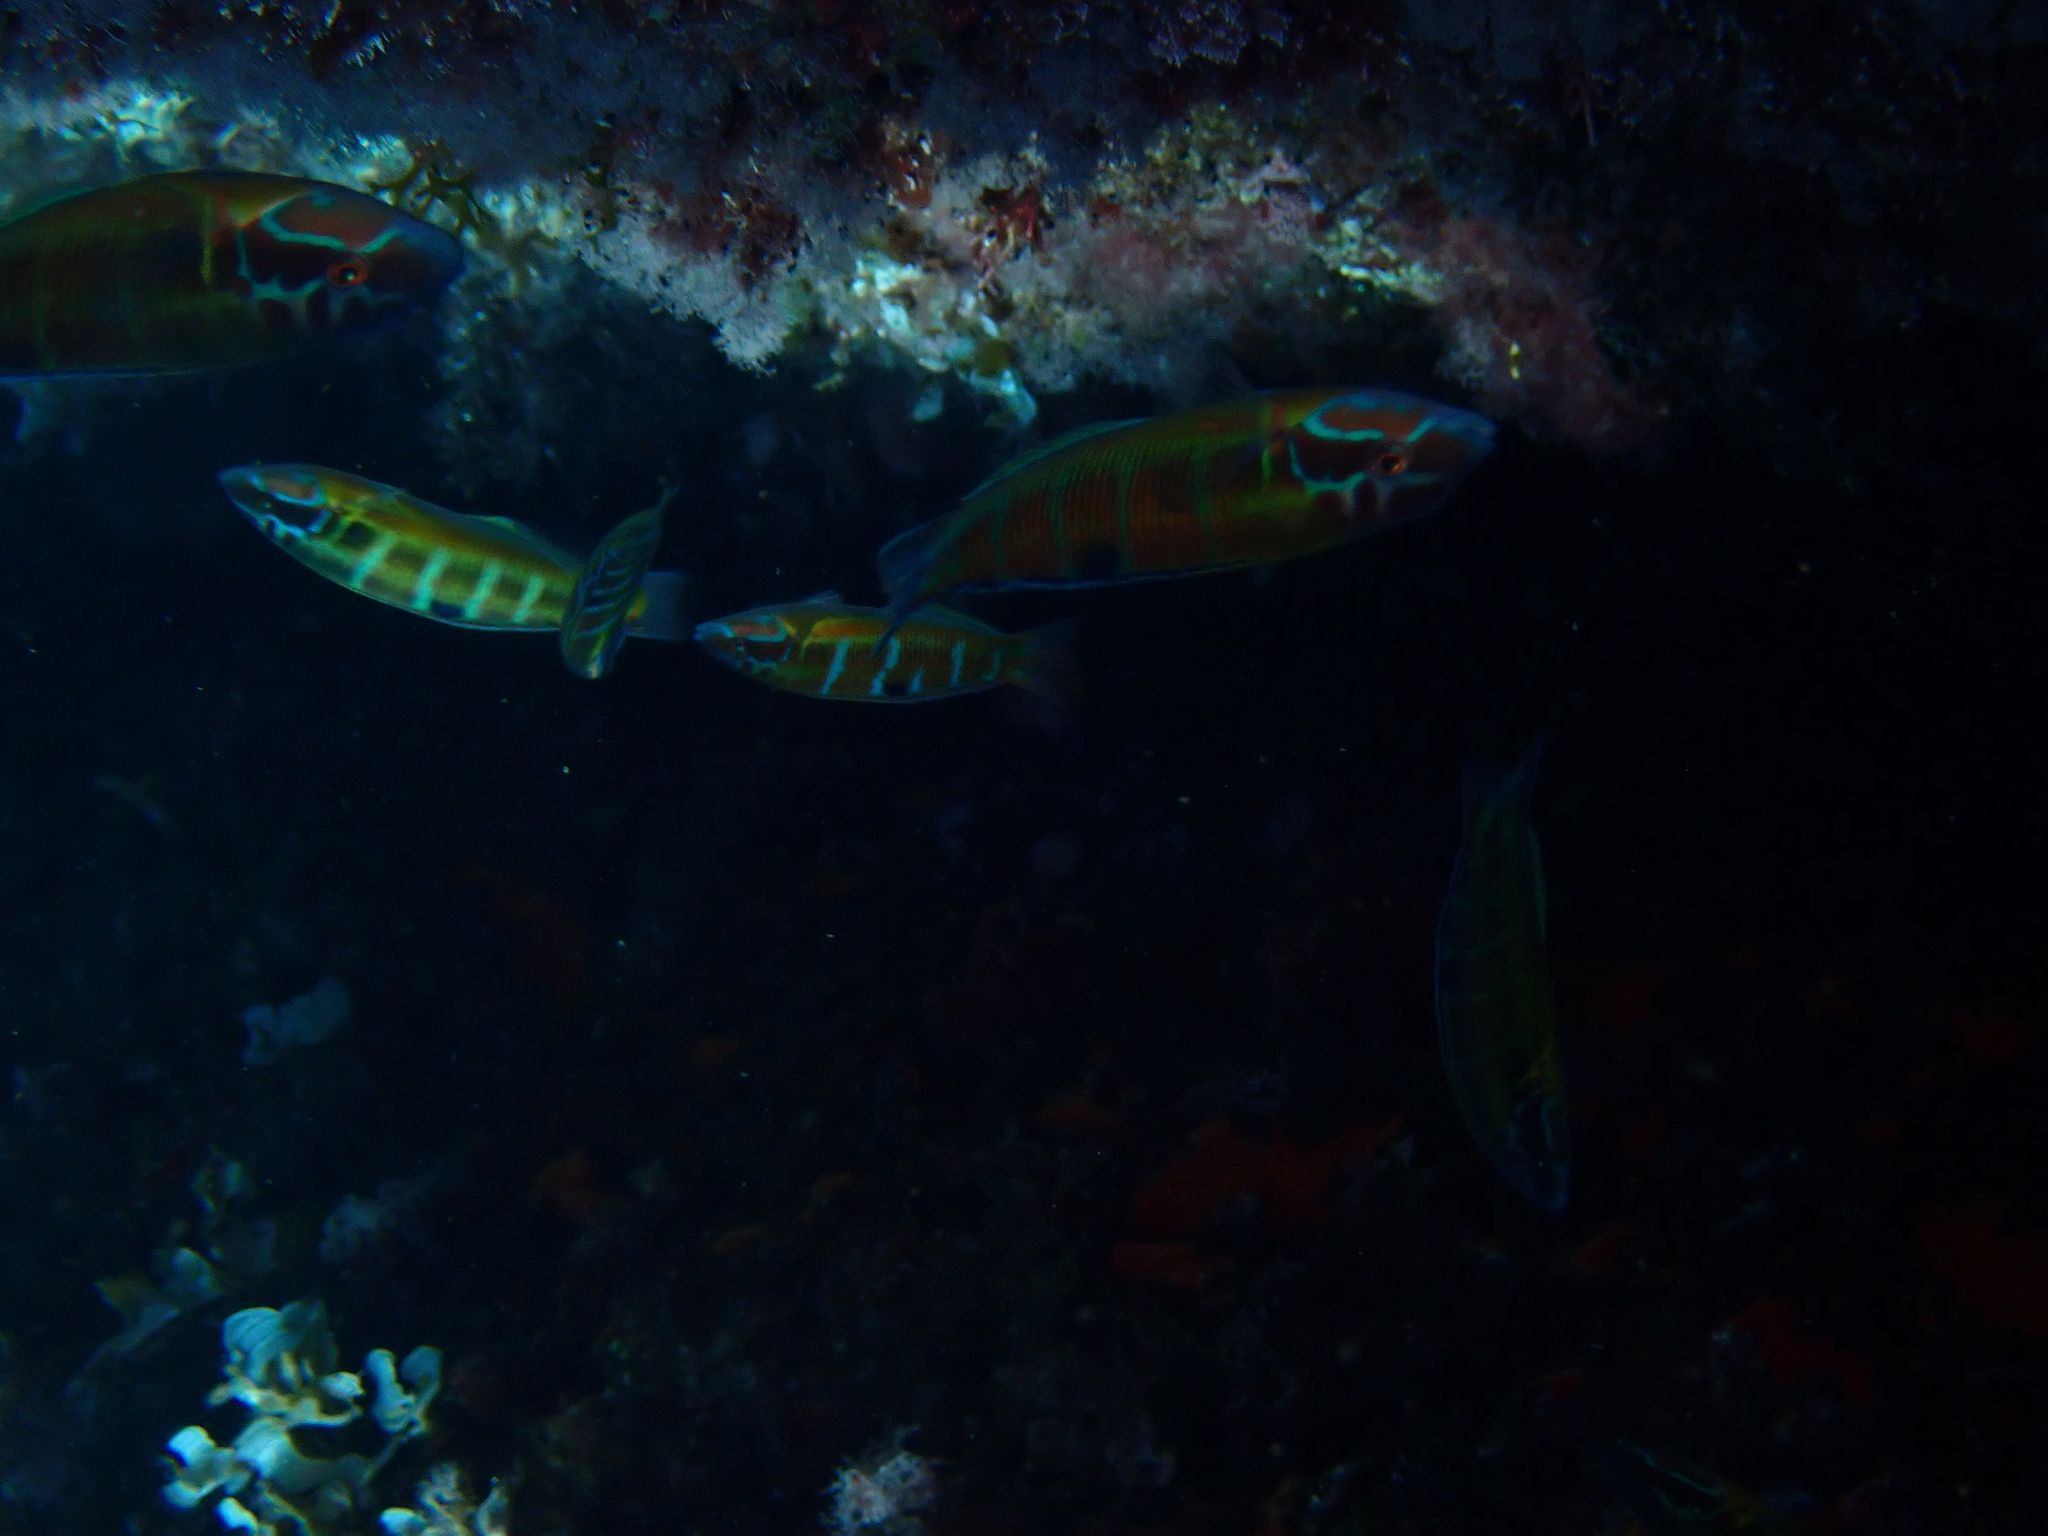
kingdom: Animalia
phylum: Chordata
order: Perciformes
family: Labridae
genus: Thalassoma
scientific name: Thalassoma pavo
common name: Ornate wrasse
